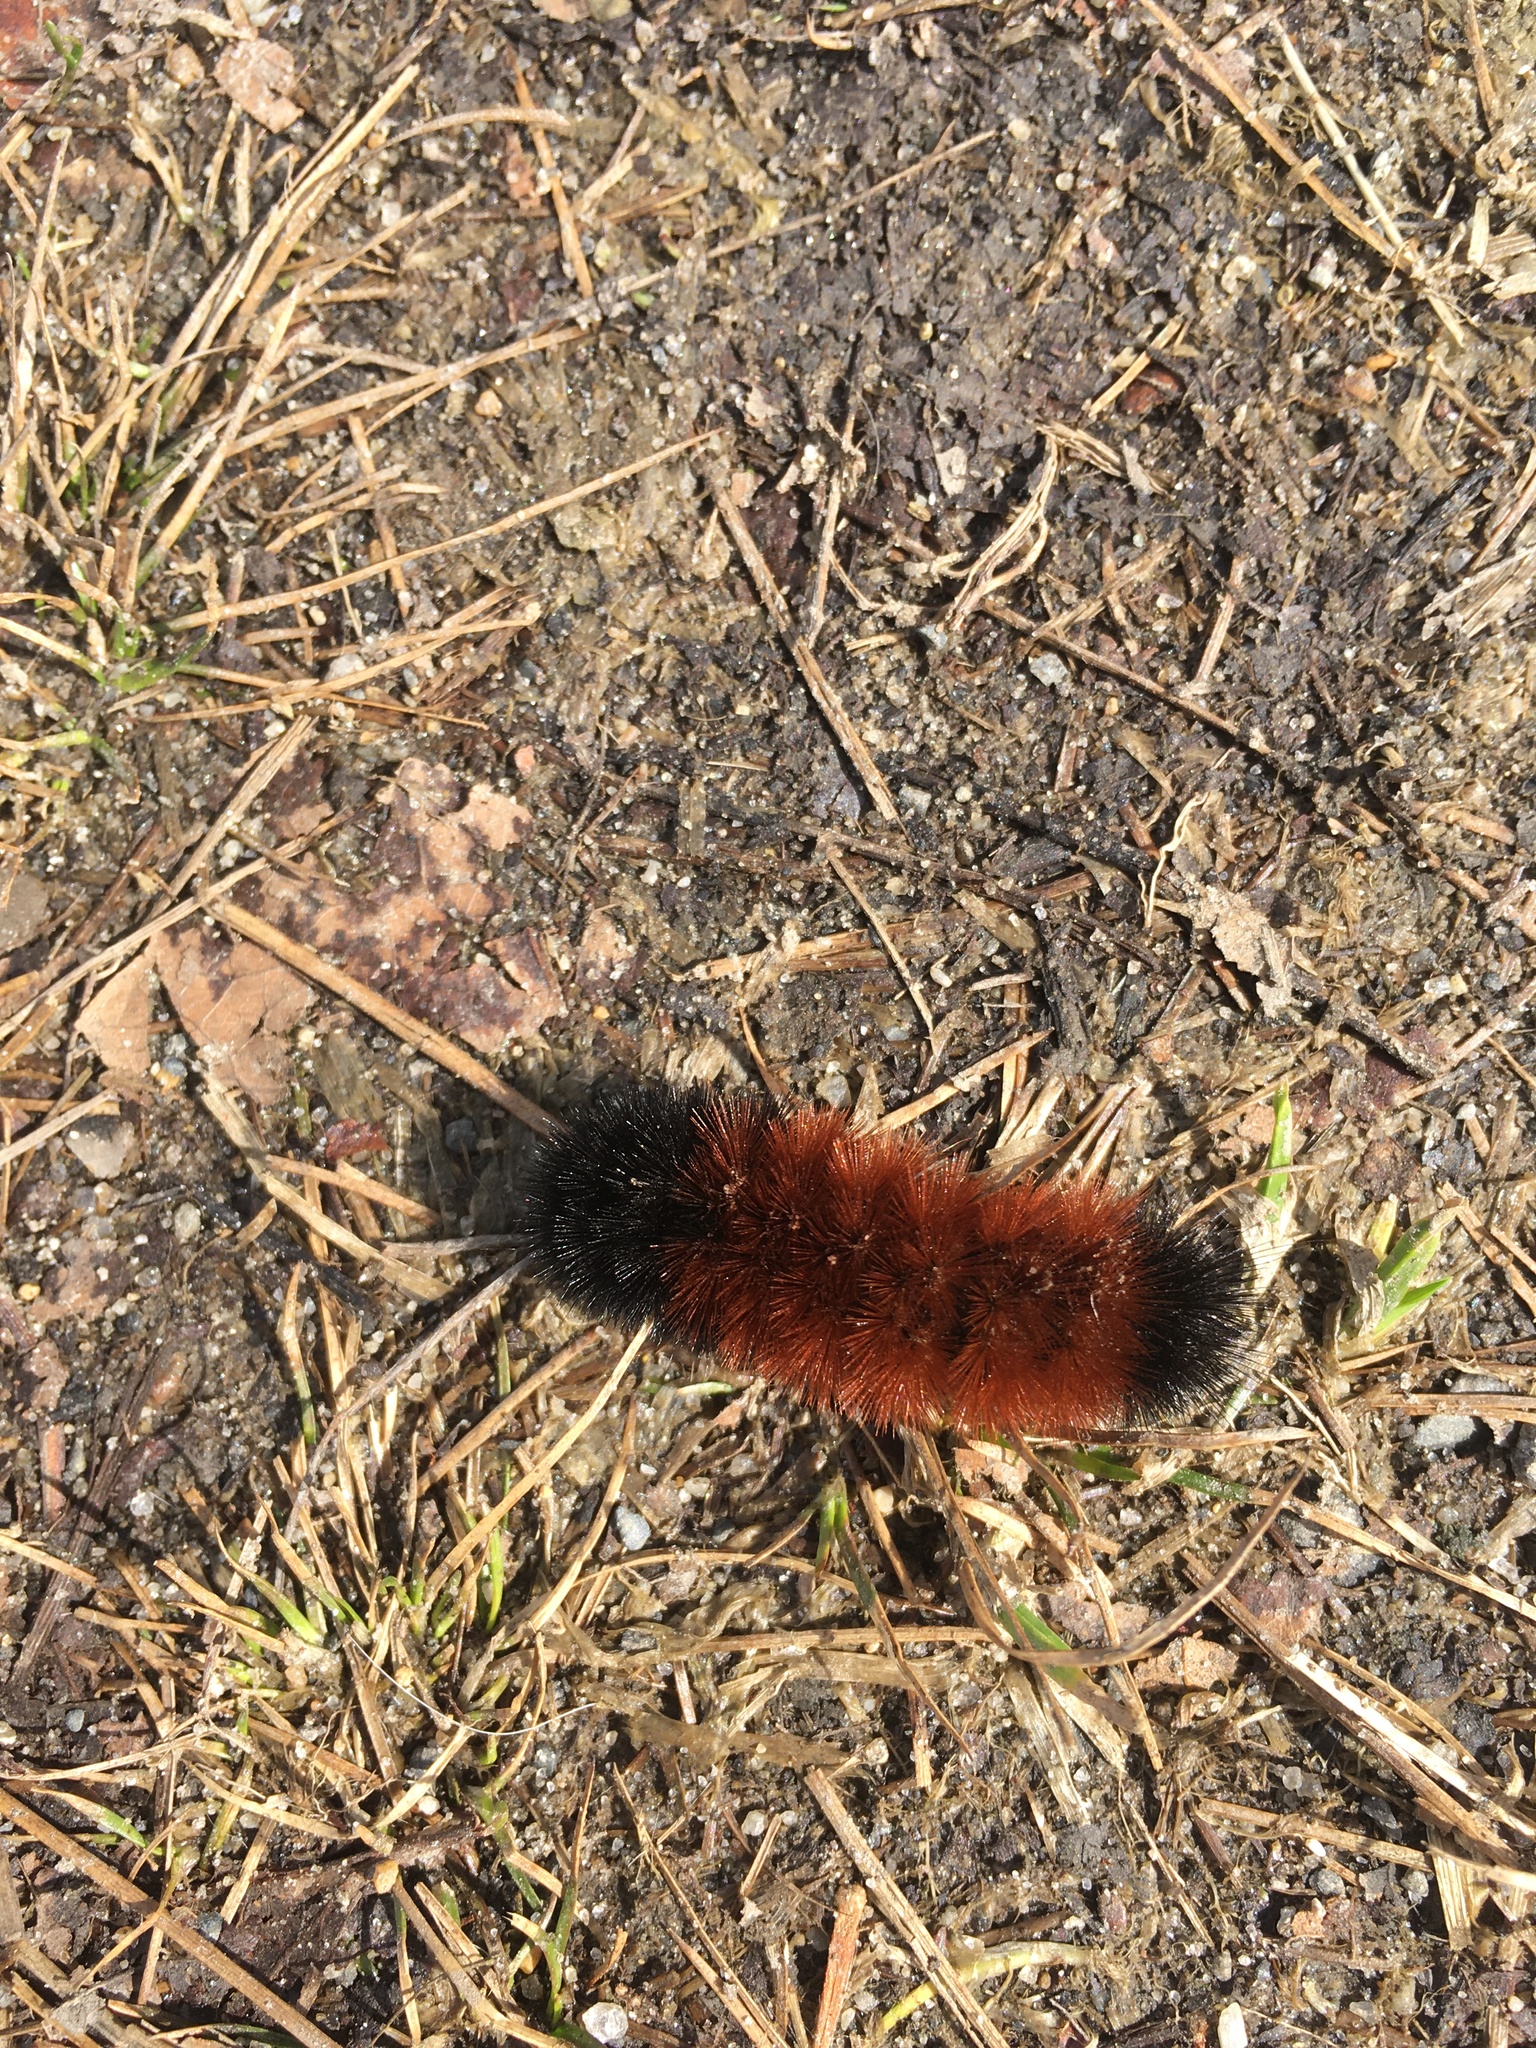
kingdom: Animalia
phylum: Arthropoda
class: Insecta
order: Lepidoptera
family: Erebidae
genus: Pyrrharctia
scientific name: Pyrrharctia isabella
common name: Isabella tiger moth
